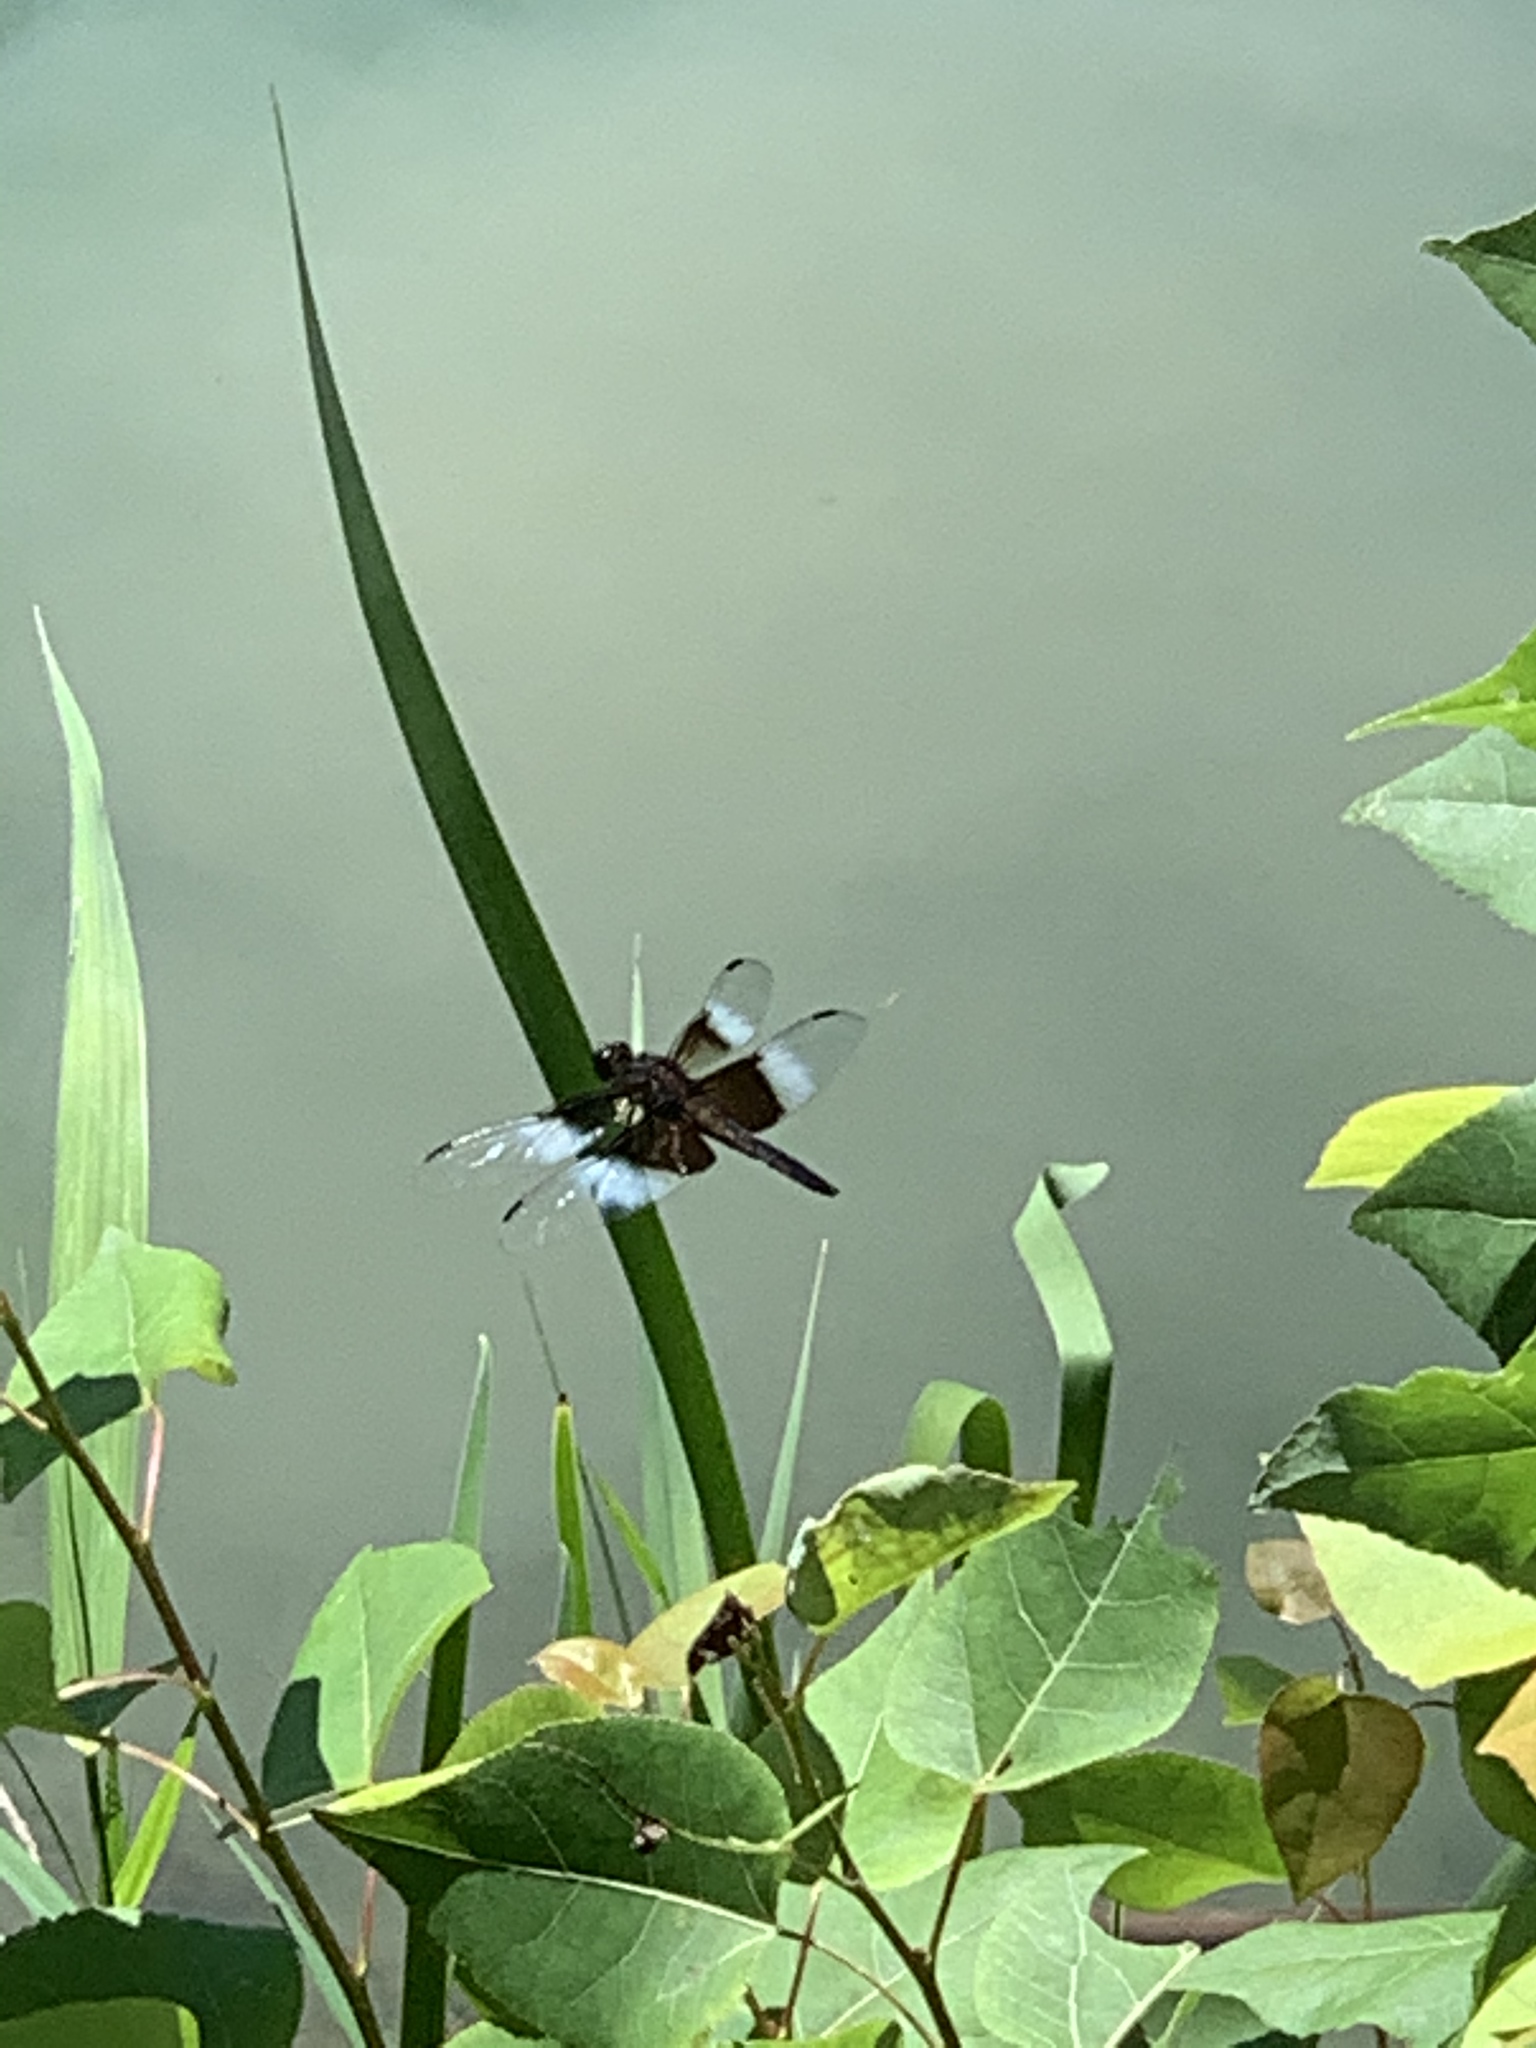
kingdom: Animalia
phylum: Arthropoda
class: Insecta
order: Odonata
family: Libellulidae
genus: Libellula
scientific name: Libellula luctuosa
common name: Widow skimmer
